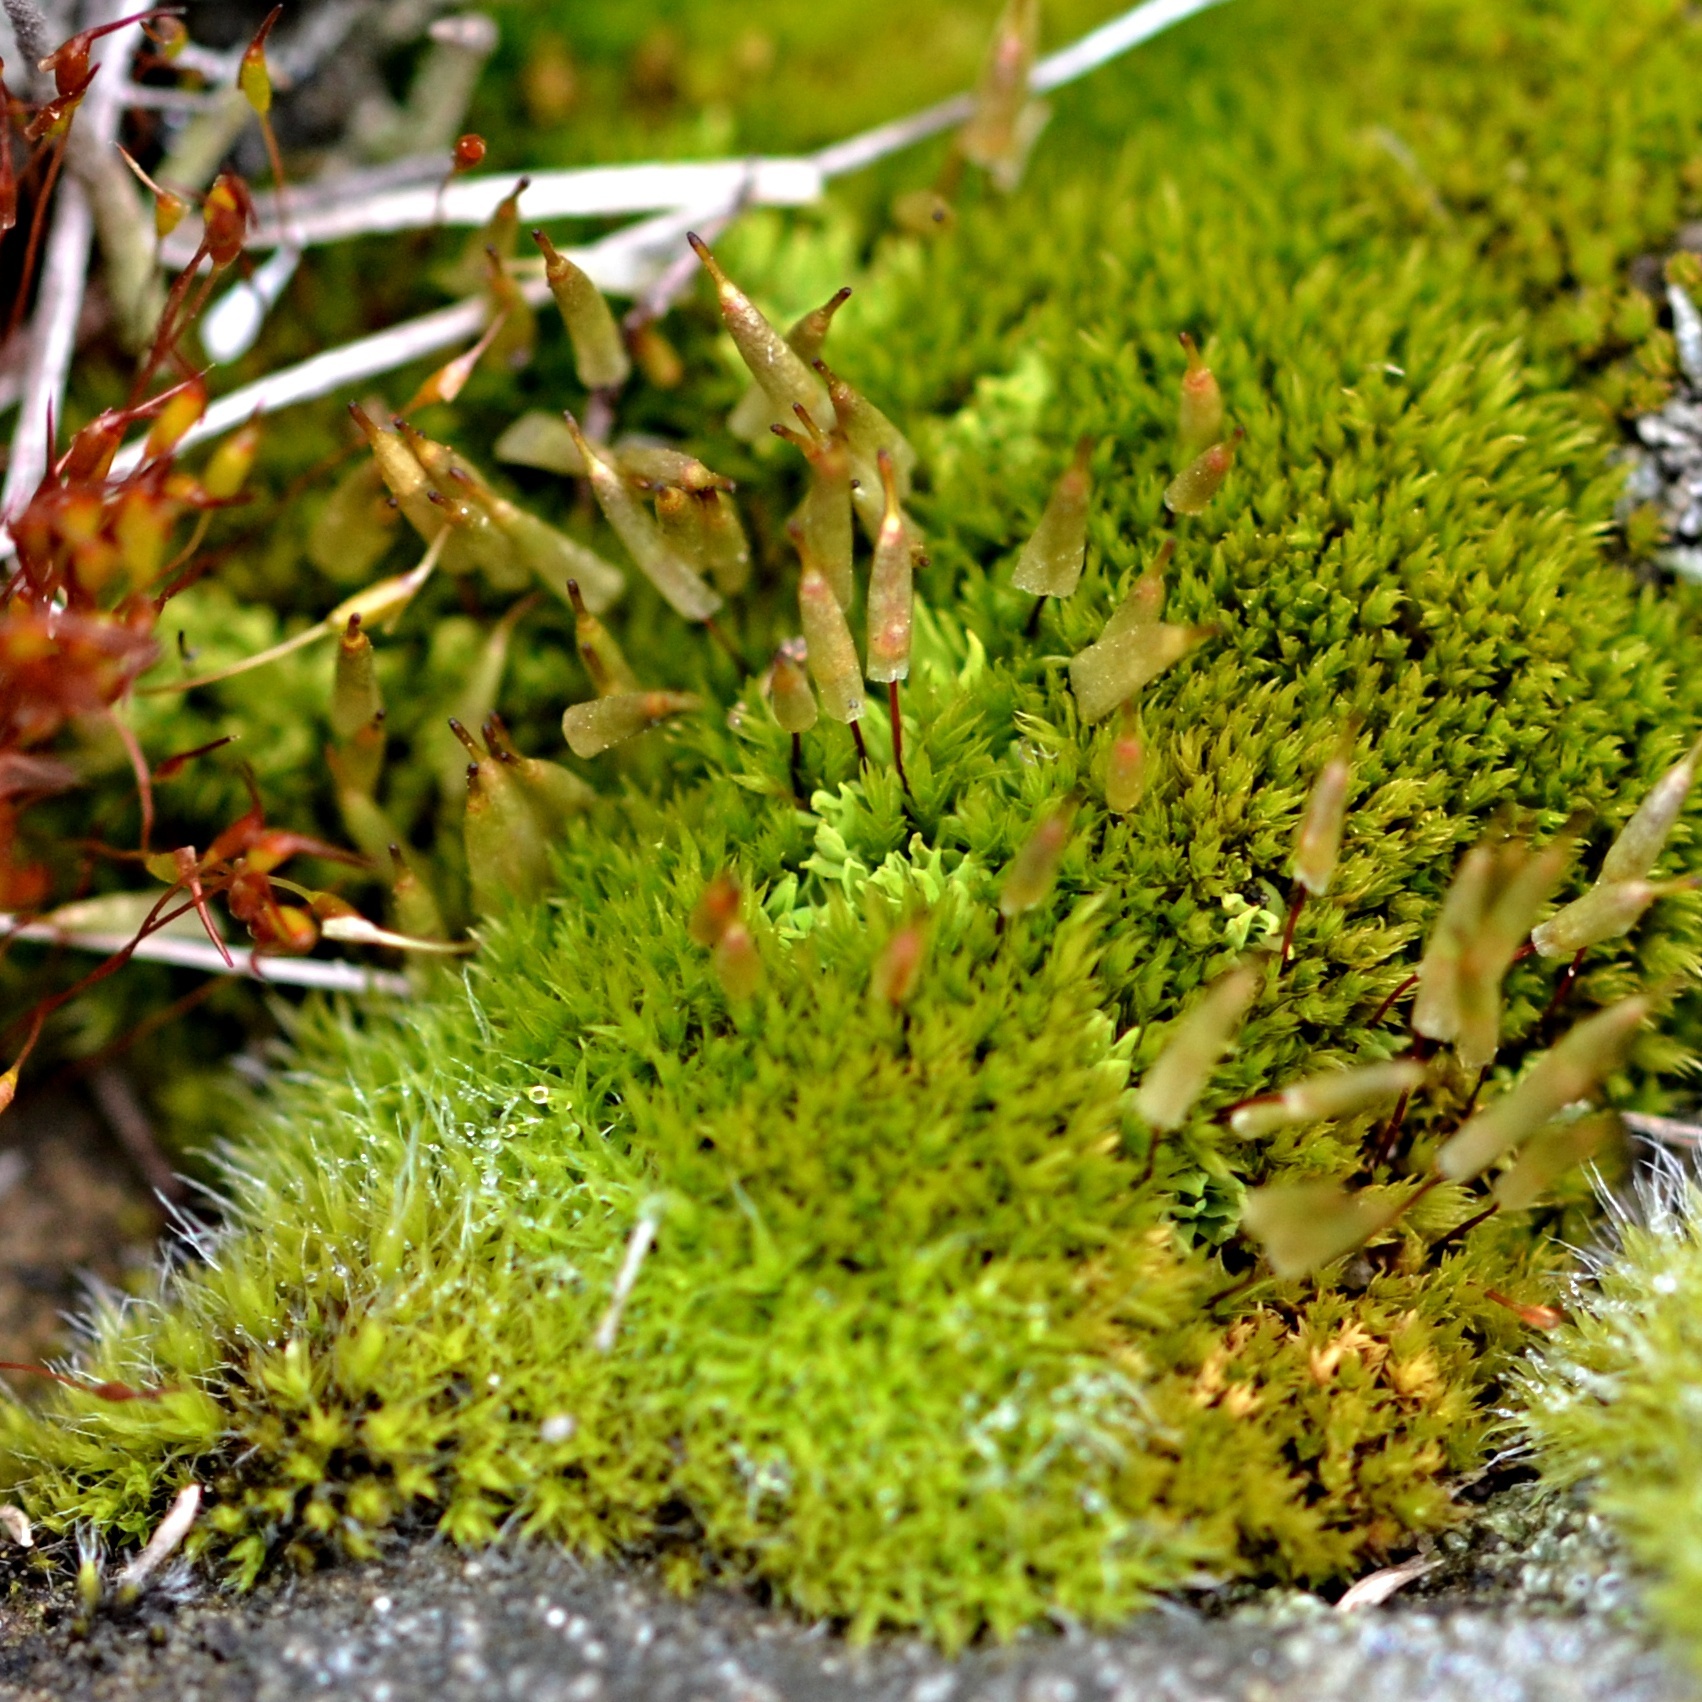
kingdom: Plantae
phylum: Bryophyta
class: Bryopsida
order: Encalyptales
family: Encalyptaceae
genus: Encalypta
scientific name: Encalypta vulgaris
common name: Common extinguisher-moss
